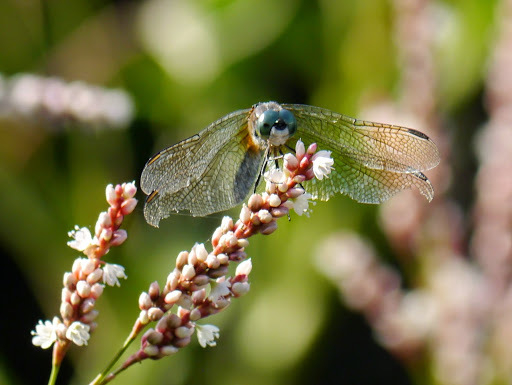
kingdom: Animalia
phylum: Arthropoda
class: Insecta
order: Odonata
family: Libellulidae
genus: Pachydiplax
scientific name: Pachydiplax longipennis
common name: Blue dasher
